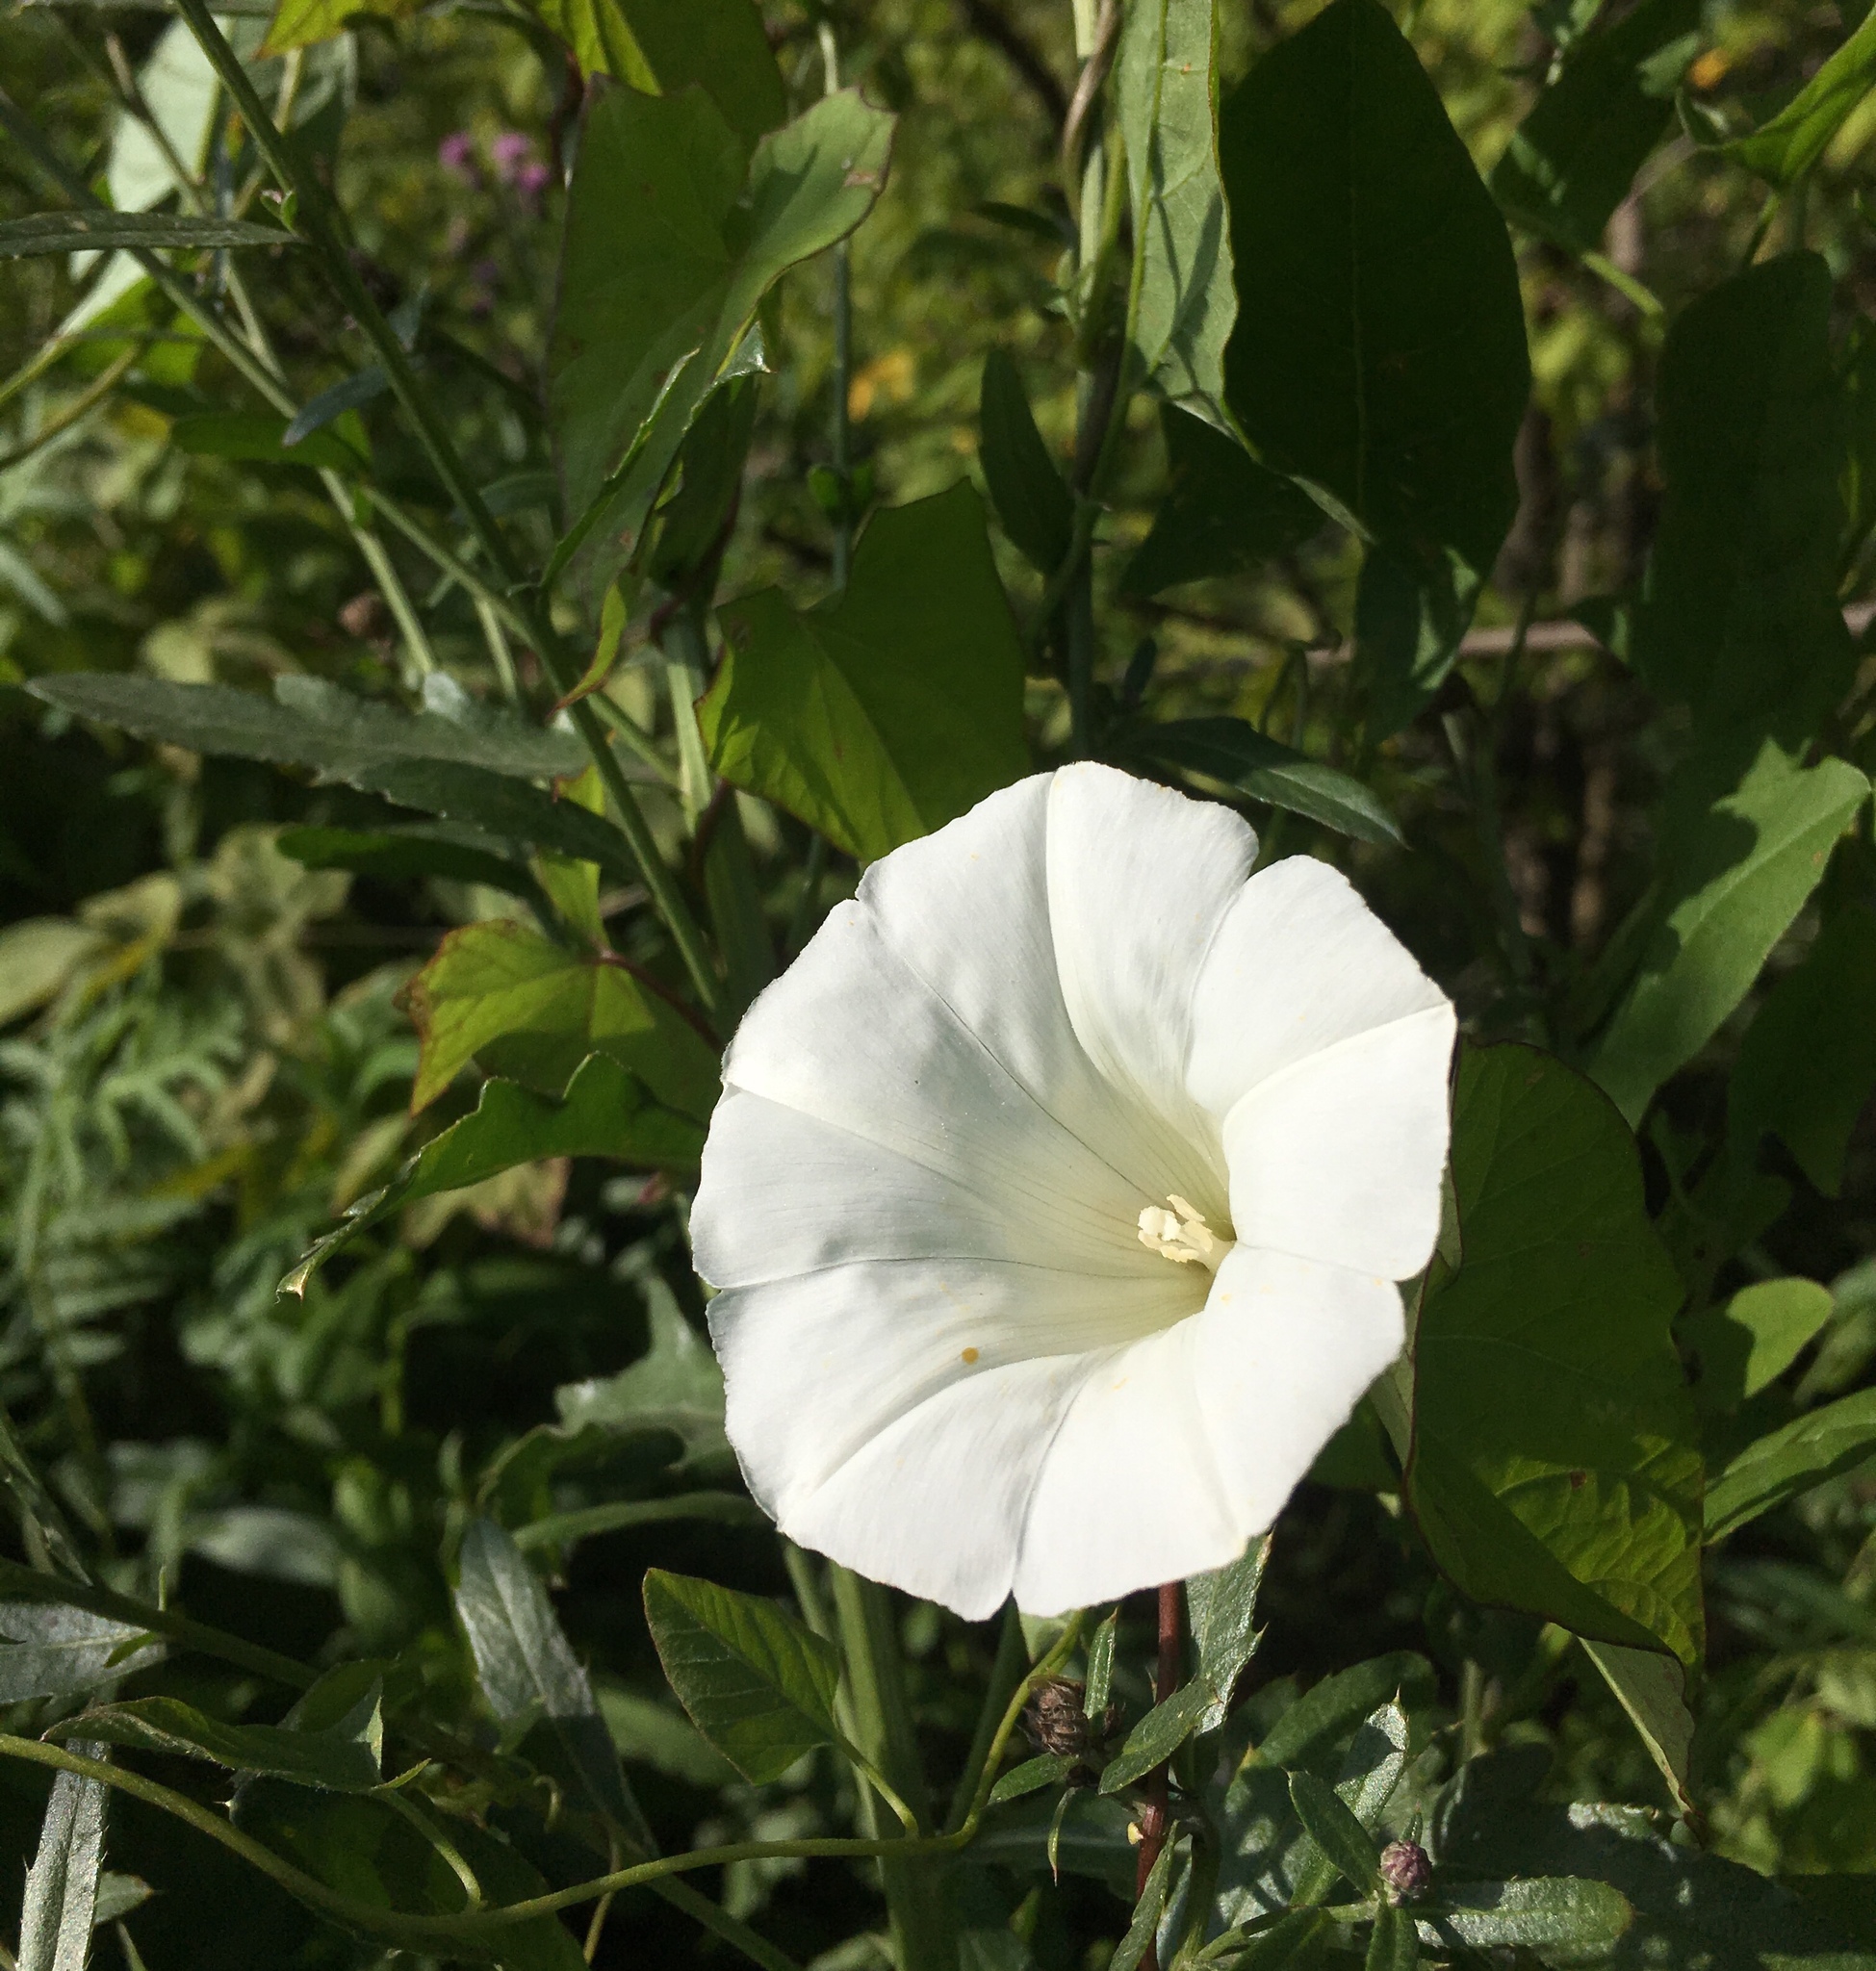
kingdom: Plantae
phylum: Tracheophyta
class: Magnoliopsida
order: Solanales
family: Convolvulaceae
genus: Calystegia
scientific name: Calystegia sepium
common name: Hedge bindweed
